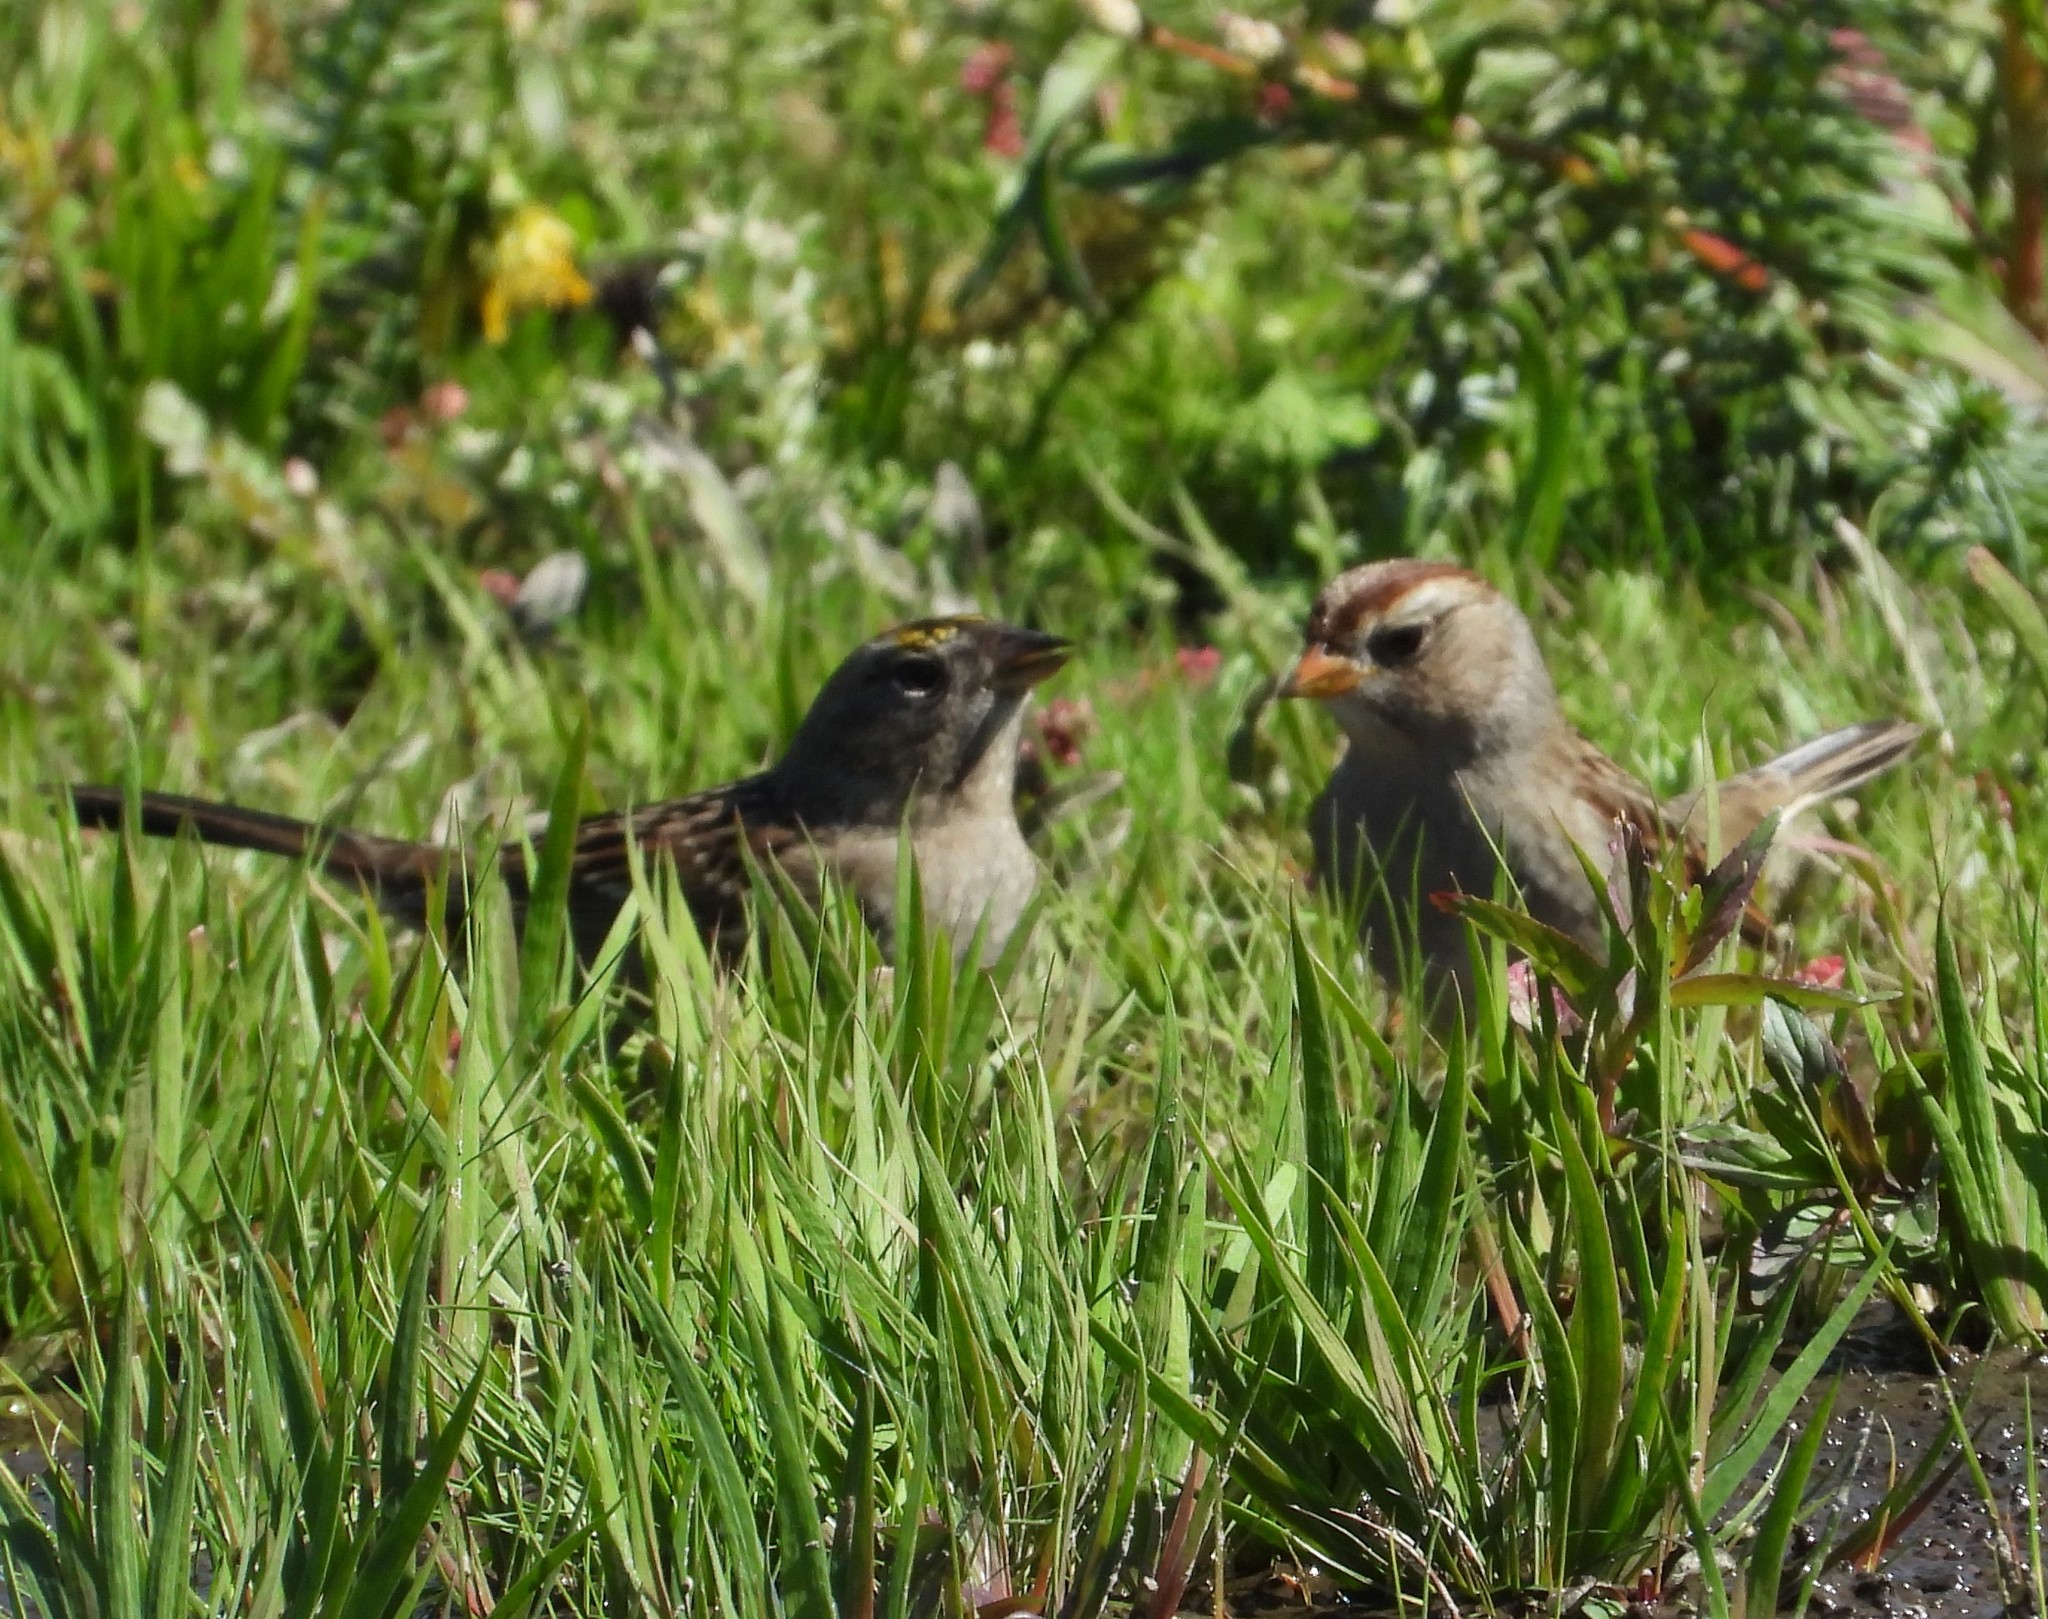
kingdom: Animalia
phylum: Chordata
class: Aves
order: Passeriformes
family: Passerellidae
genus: Zonotrichia
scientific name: Zonotrichia leucophrys
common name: White-crowned sparrow
